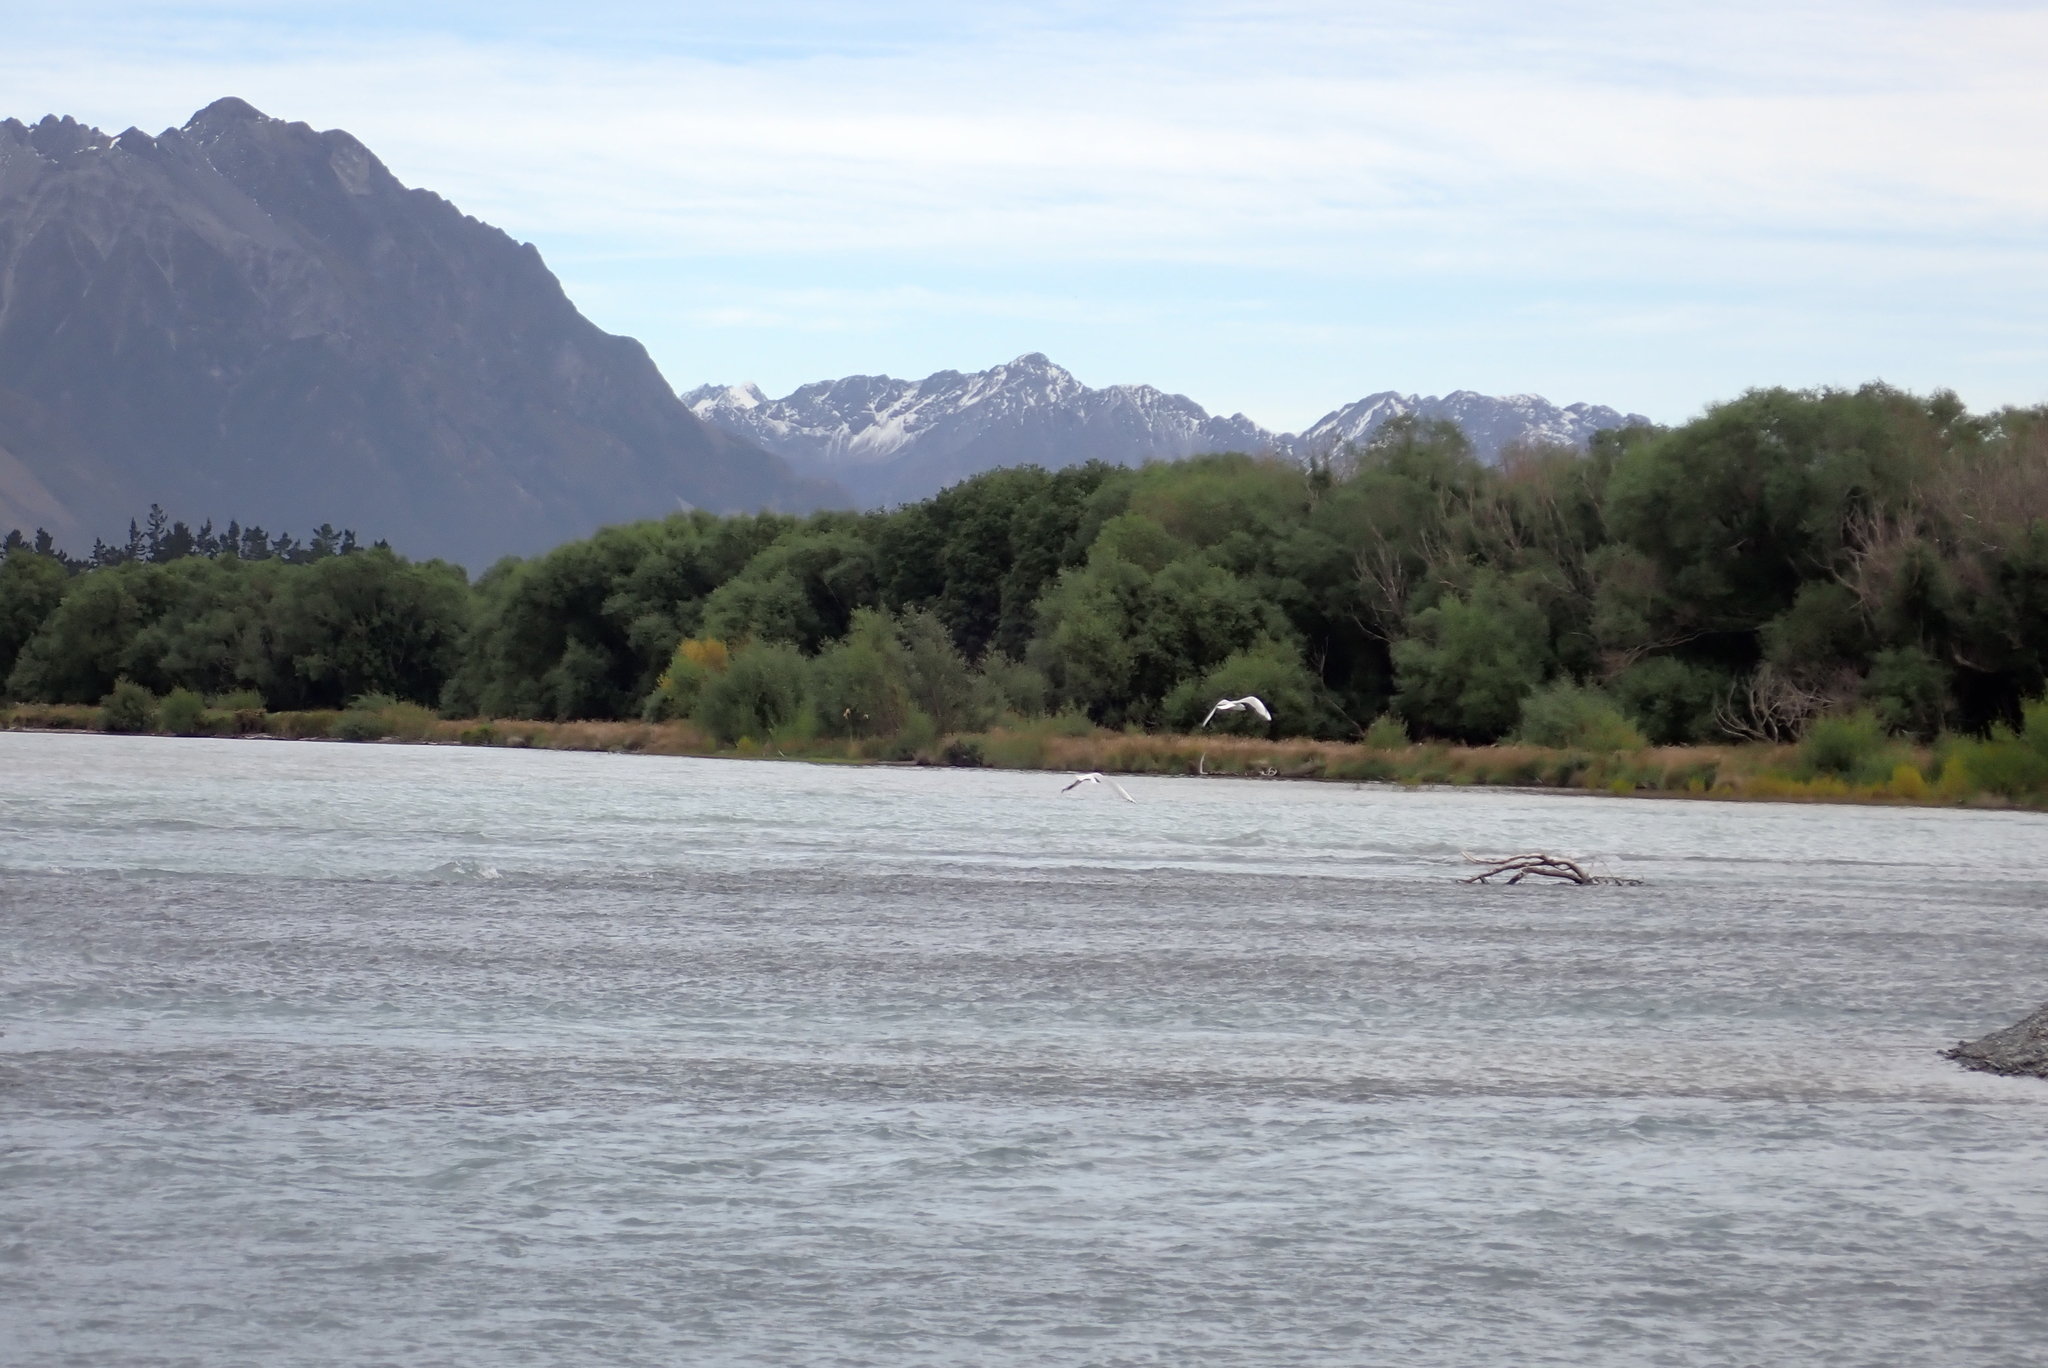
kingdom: Animalia
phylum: Chordata
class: Aves
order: Charadriiformes
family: Laridae
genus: Chroicocephalus
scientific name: Chroicocephalus bulleri
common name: Black-billed gull
